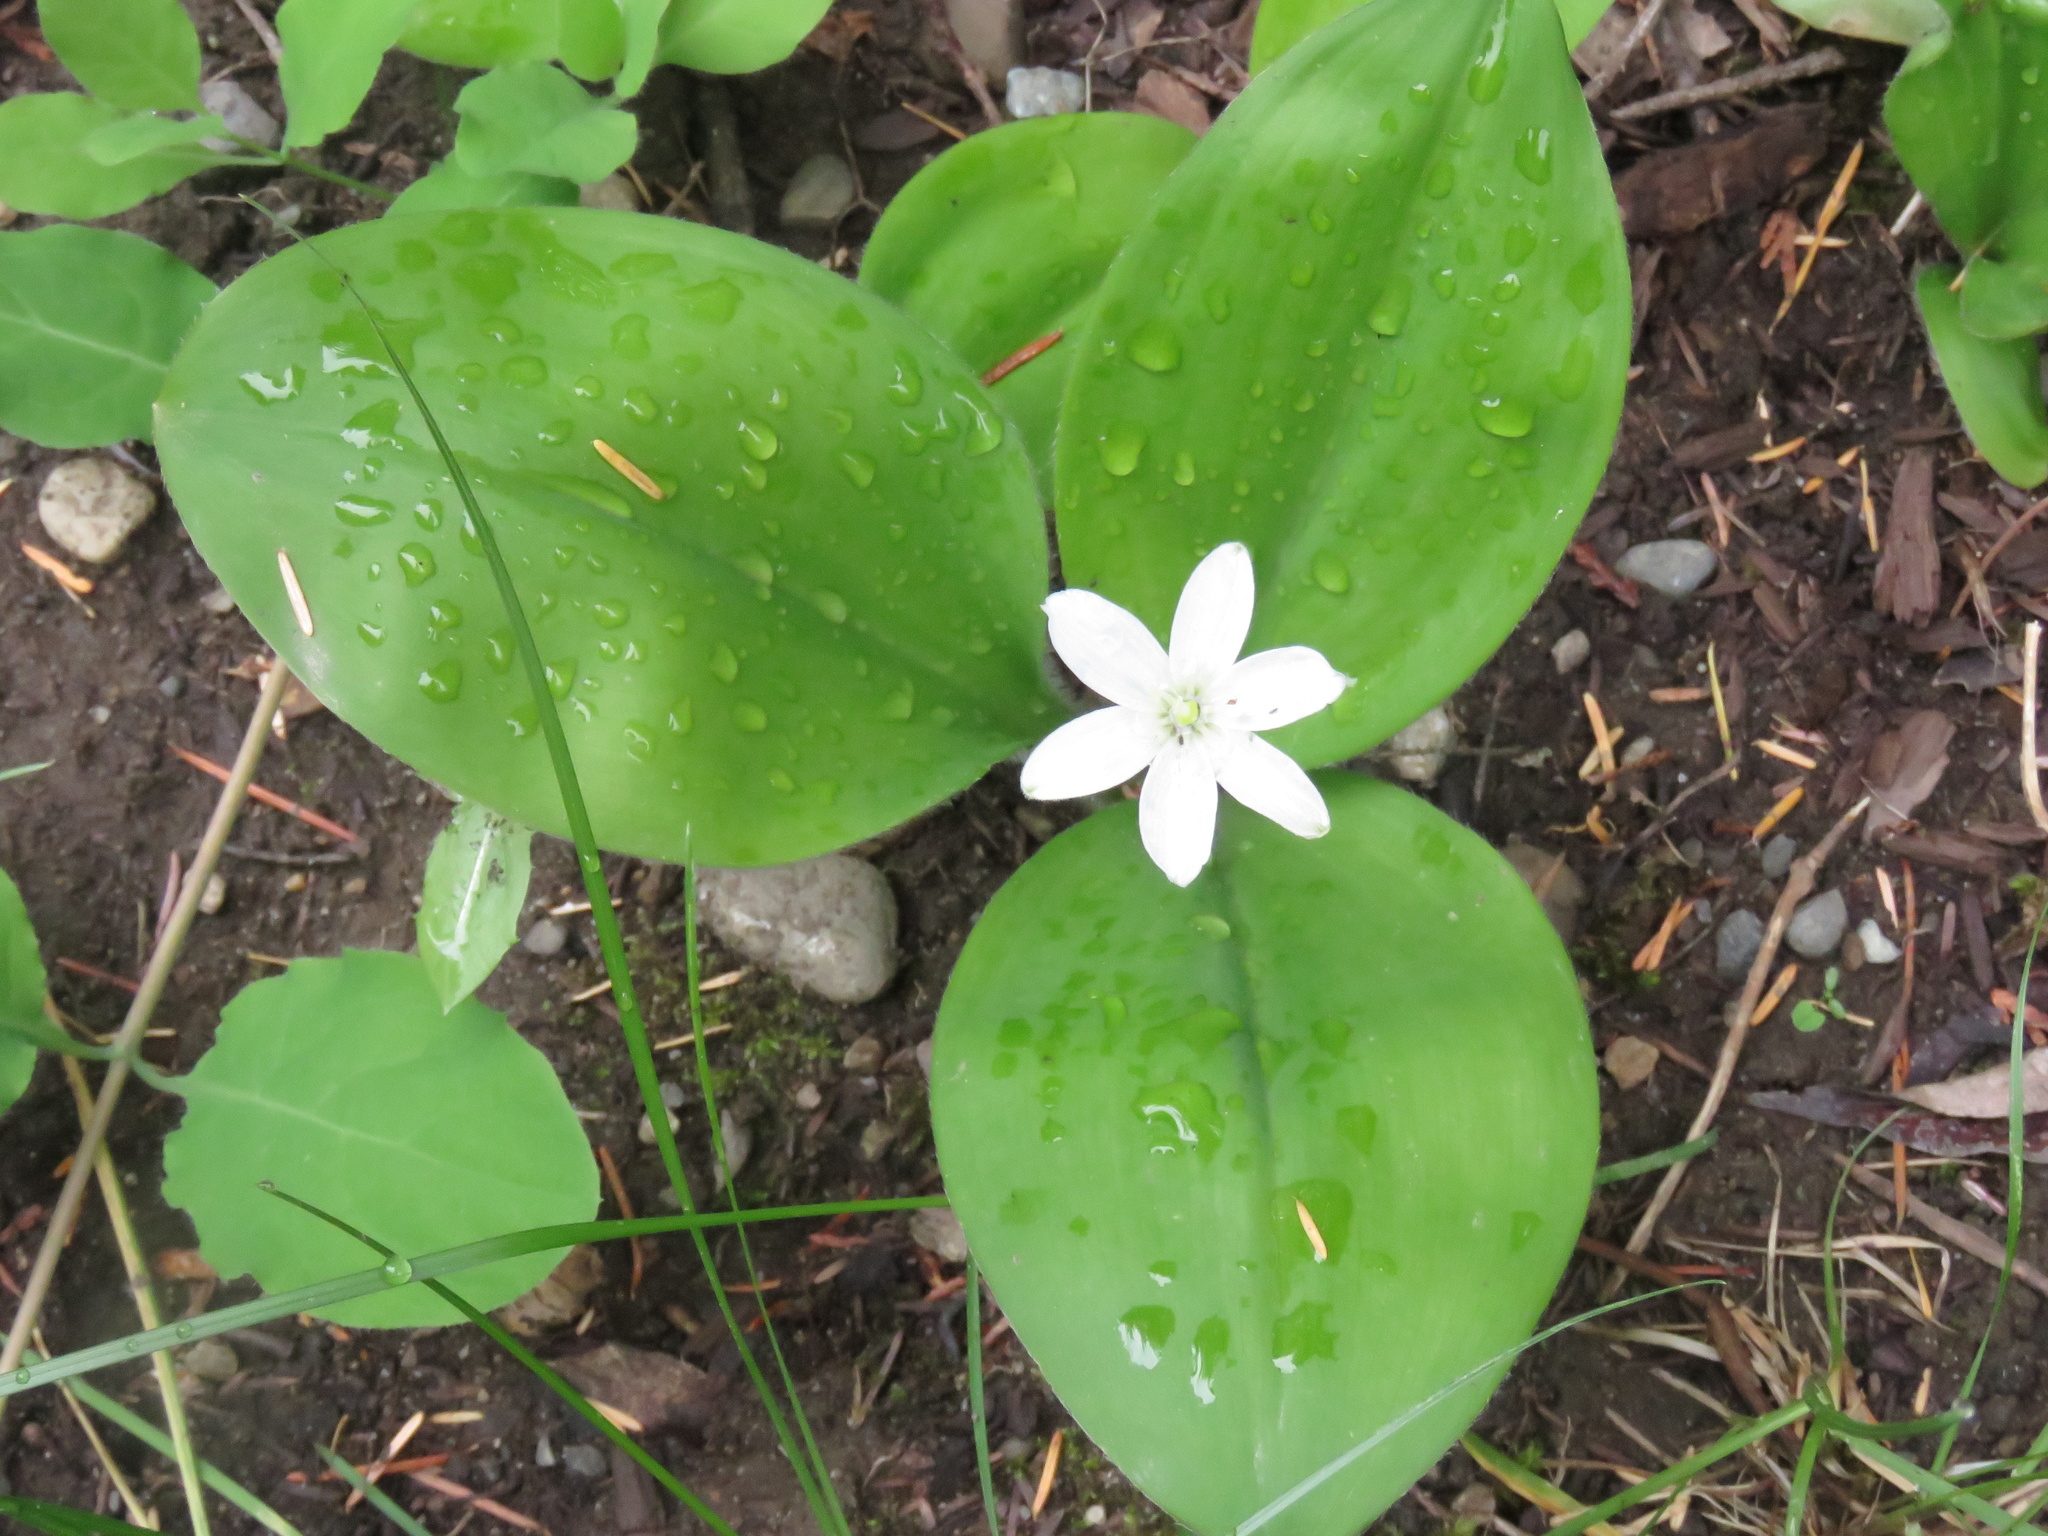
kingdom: Plantae
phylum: Tracheophyta
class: Liliopsida
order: Liliales
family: Liliaceae
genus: Clintonia
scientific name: Clintonia uniflora
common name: Queen's cup
